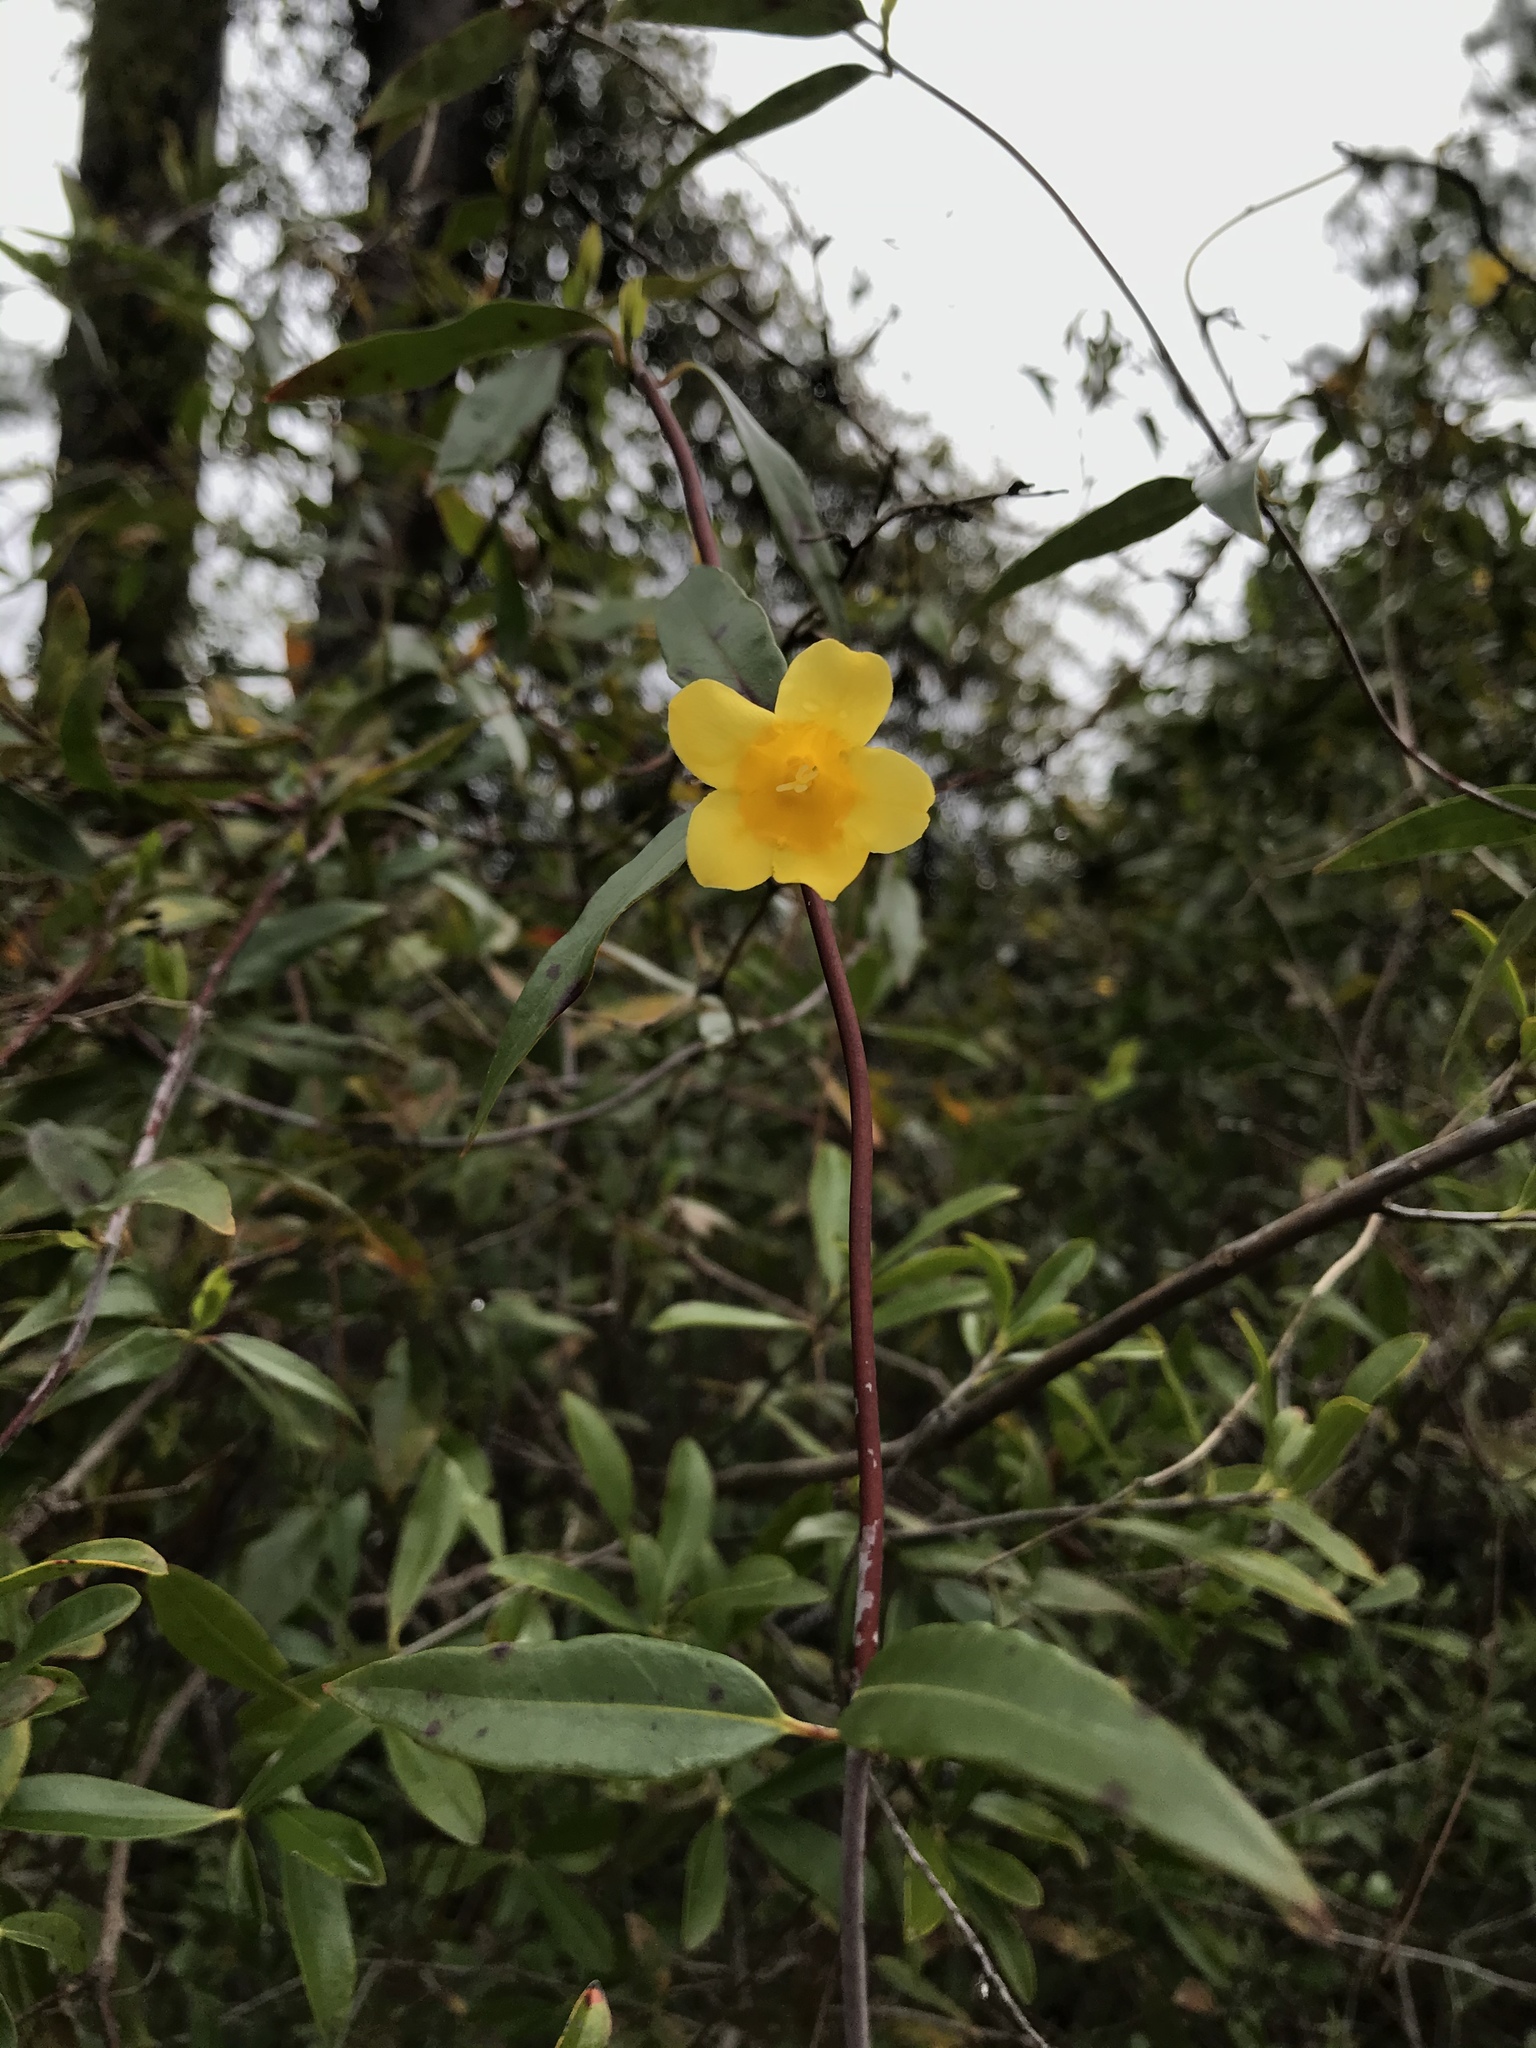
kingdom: Plantae
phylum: Tracheophyta
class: Magnoliopsida
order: Gentianales
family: Gelsemiaceae
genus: Gelsemium
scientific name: Gelsemium sempervirens
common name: Carolina-jasmine
